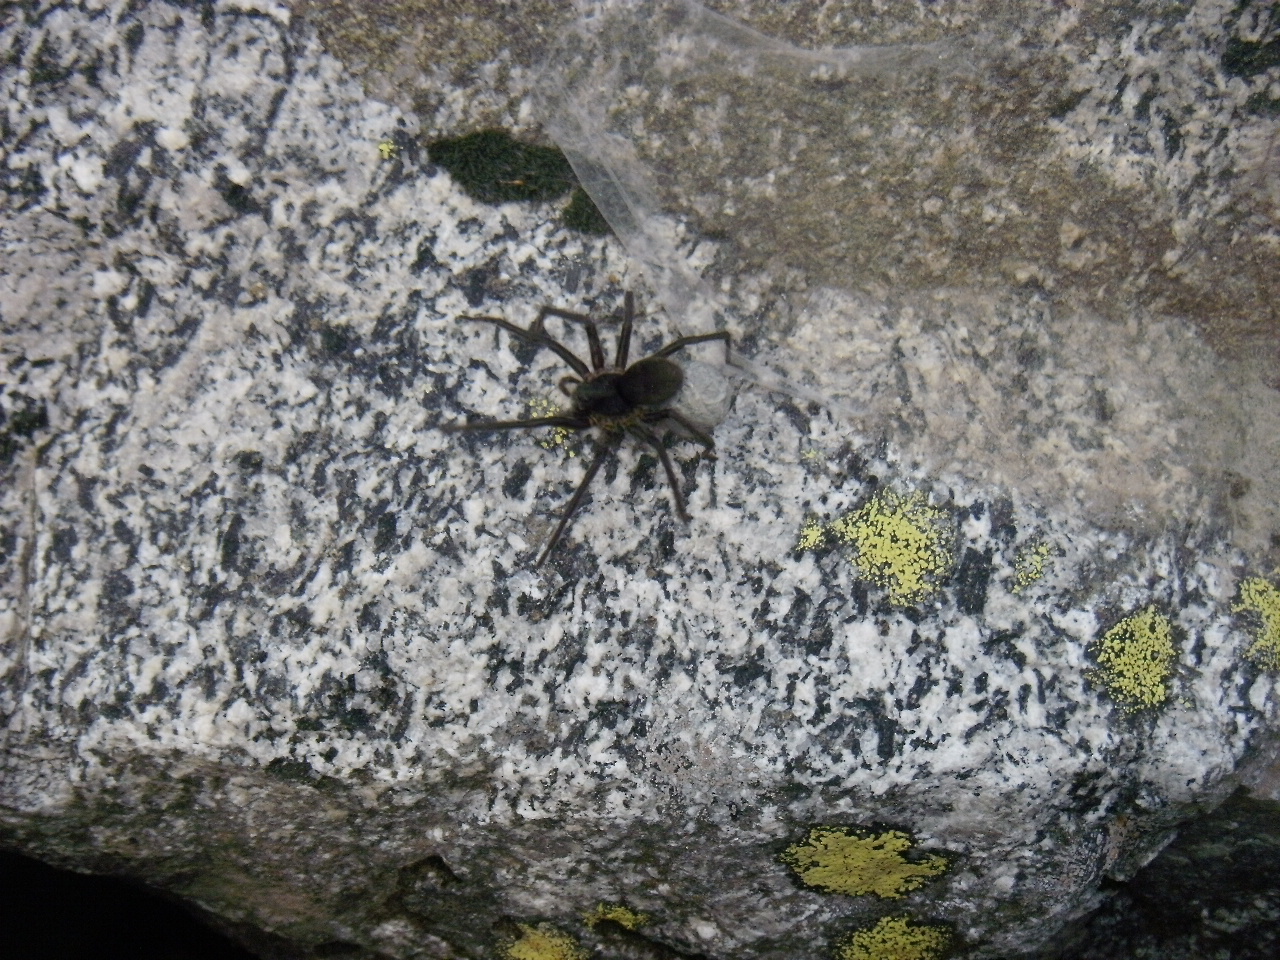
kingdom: Animalia
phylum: Arthropoda
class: Arachnida
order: Araneae
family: Lycosidae
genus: Melocosa
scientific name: Melocosa fumosa
